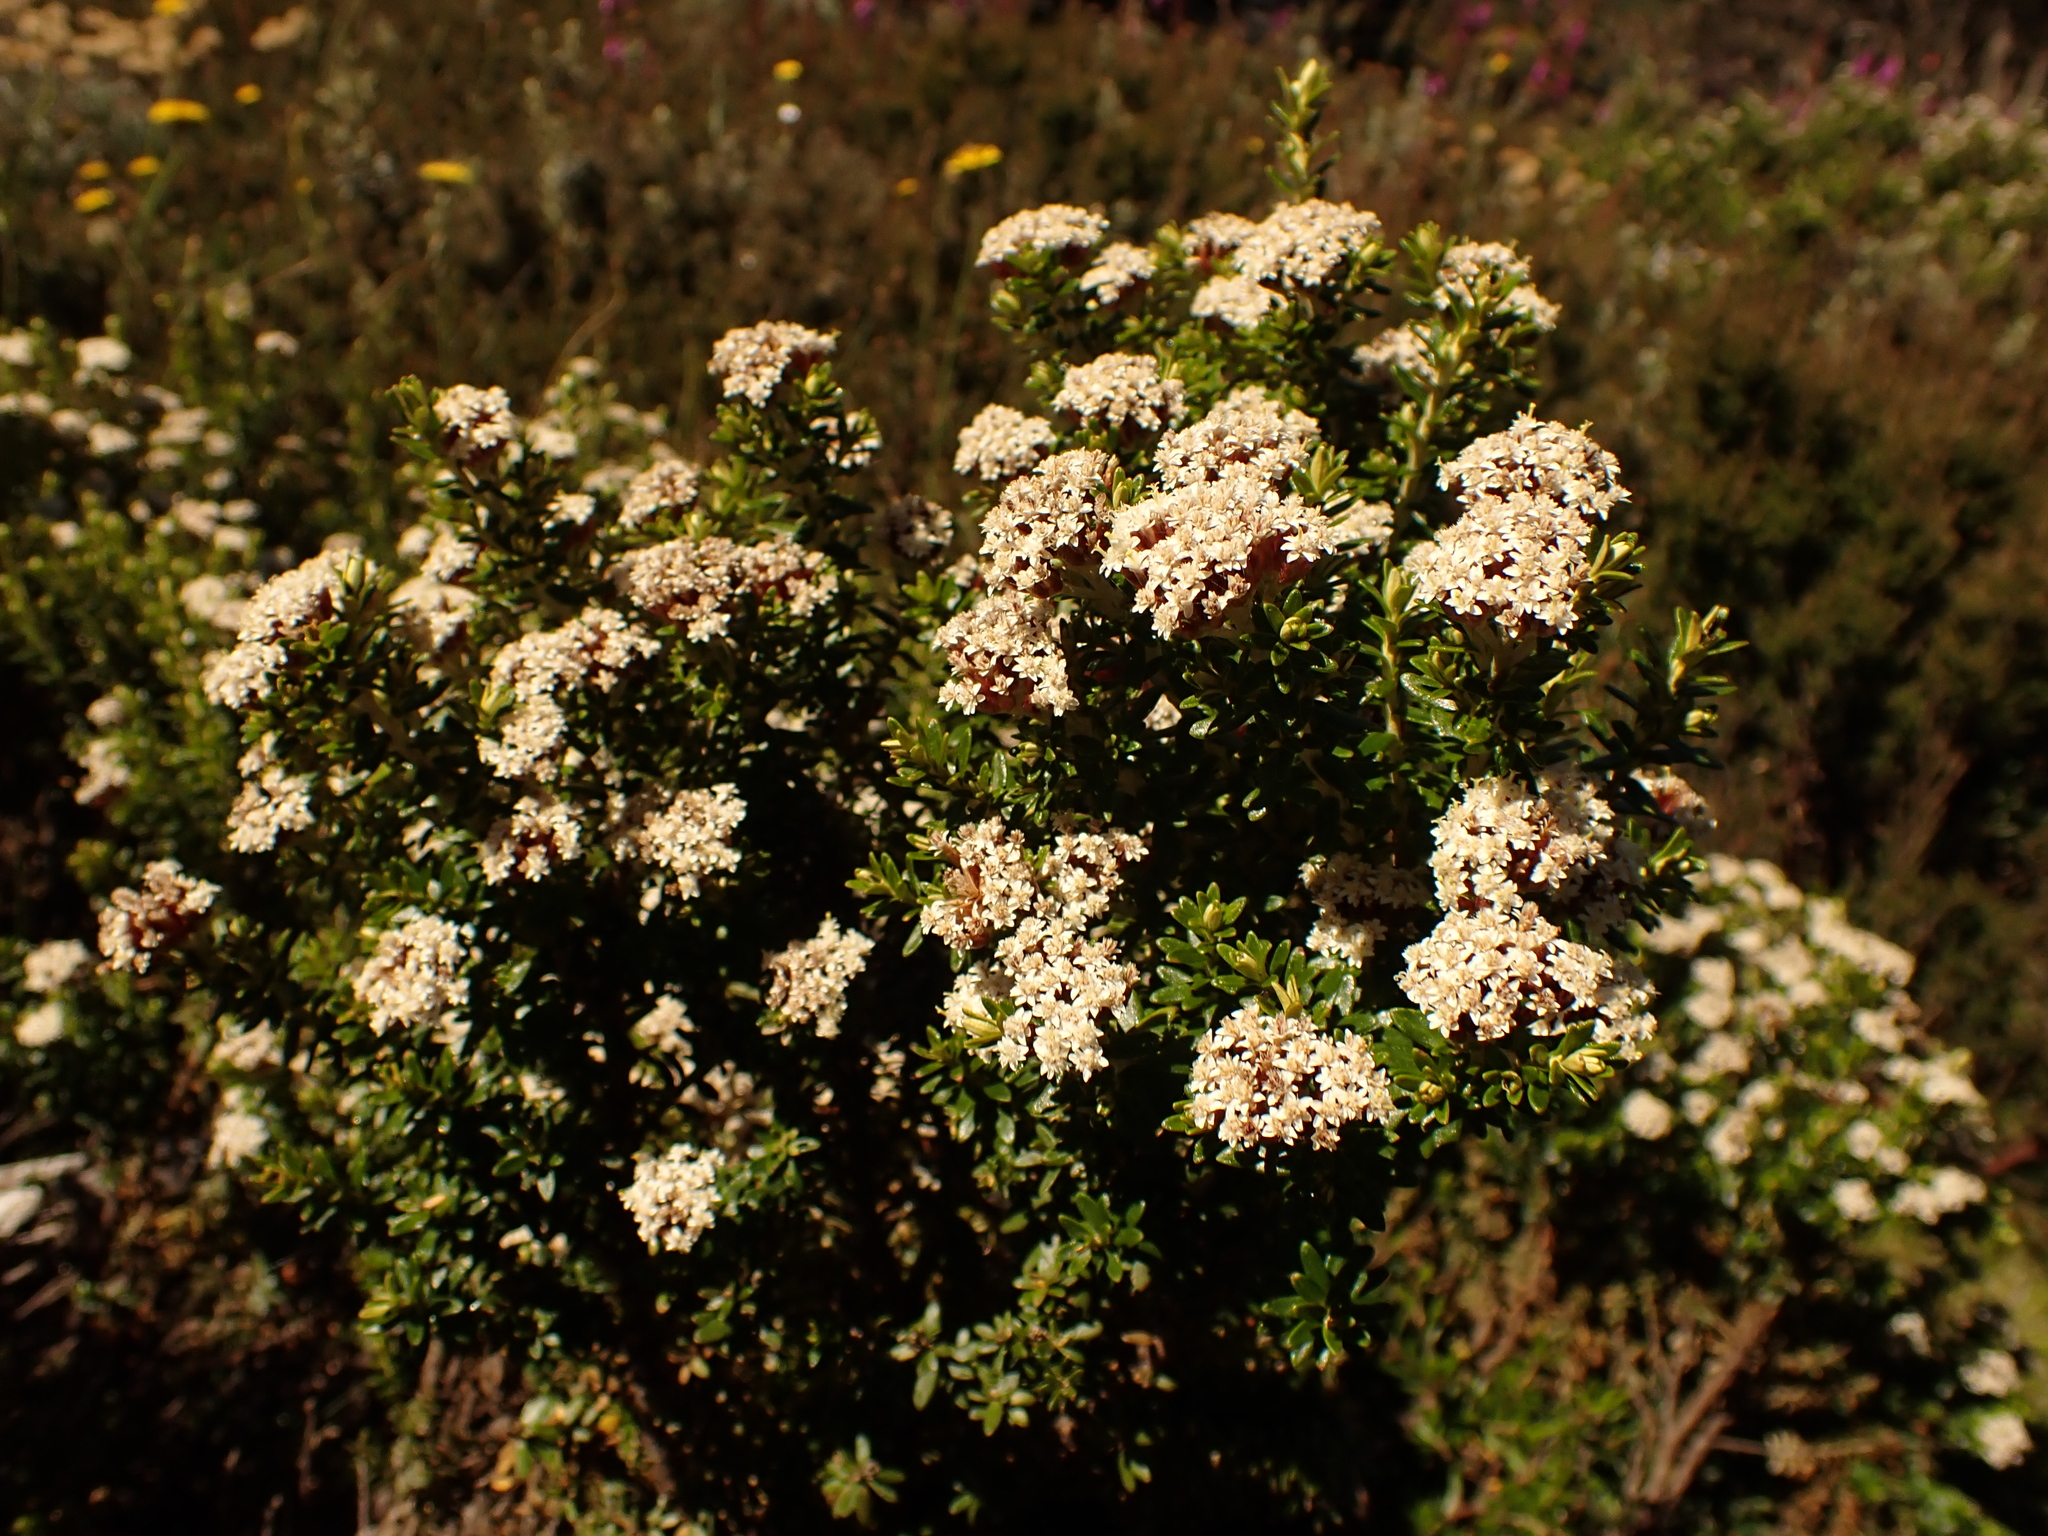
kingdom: Plantae
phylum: Tracheophyta
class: Magnoliopsida
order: Asterales
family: Asteraceae
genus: Ozothamnus
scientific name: Ozothamnus alpinus
